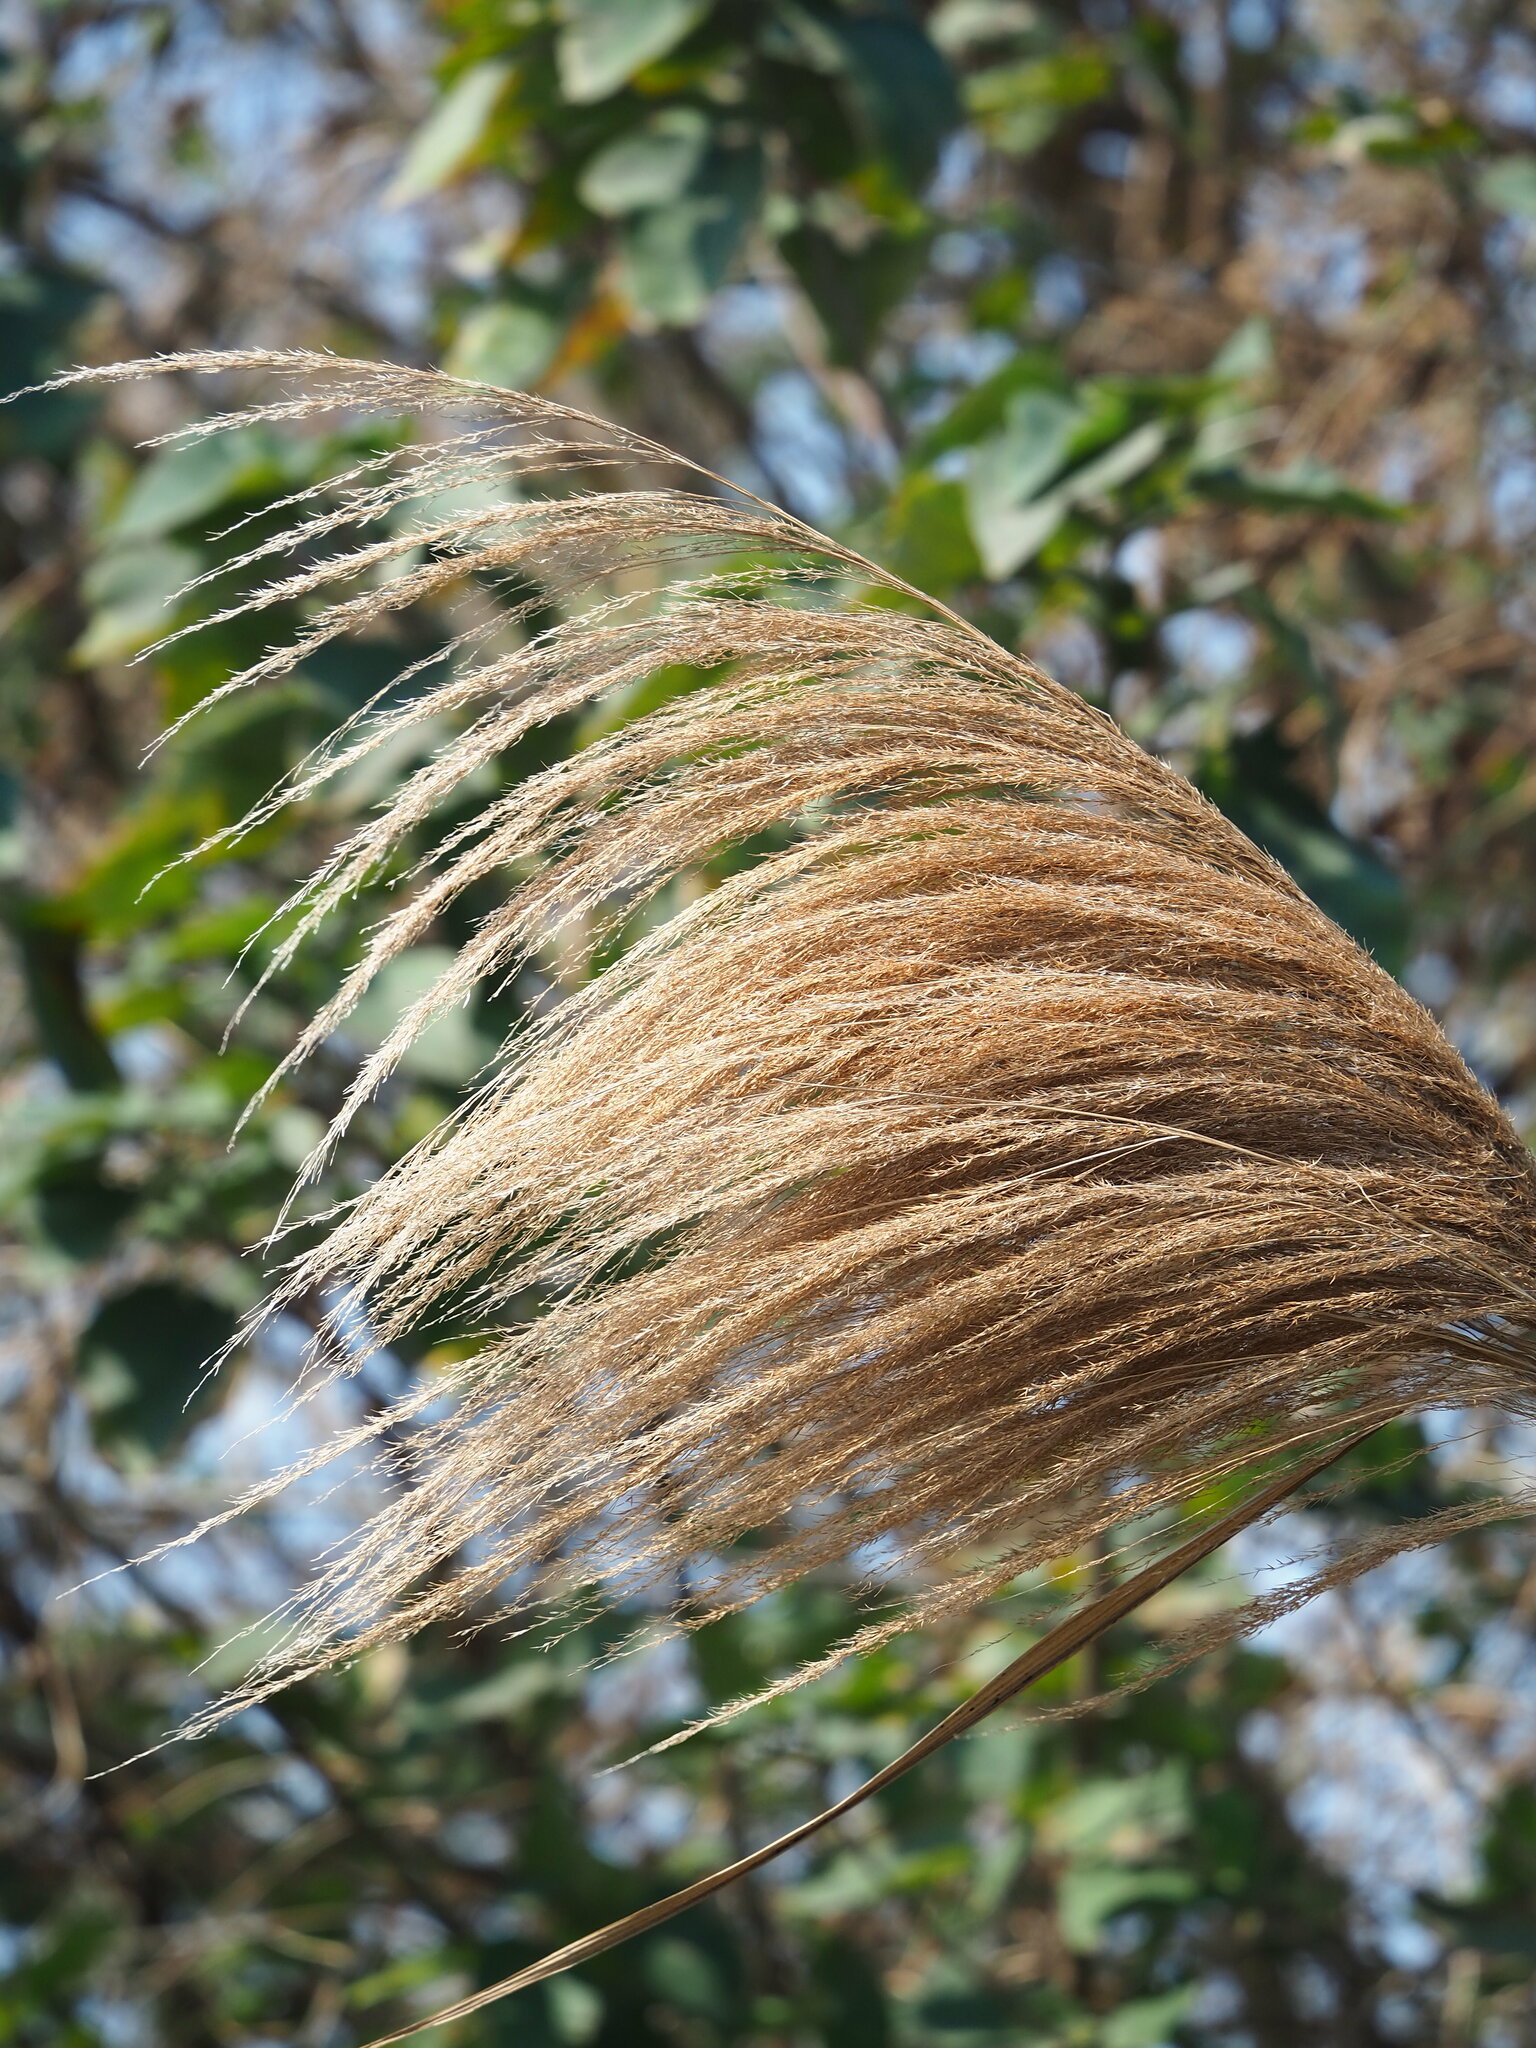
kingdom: Plantae
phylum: Tracheophyta
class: Liliopsida
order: Poales
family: Poaceae
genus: Phragmites
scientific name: Phragmites karka
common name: Tropical reed
